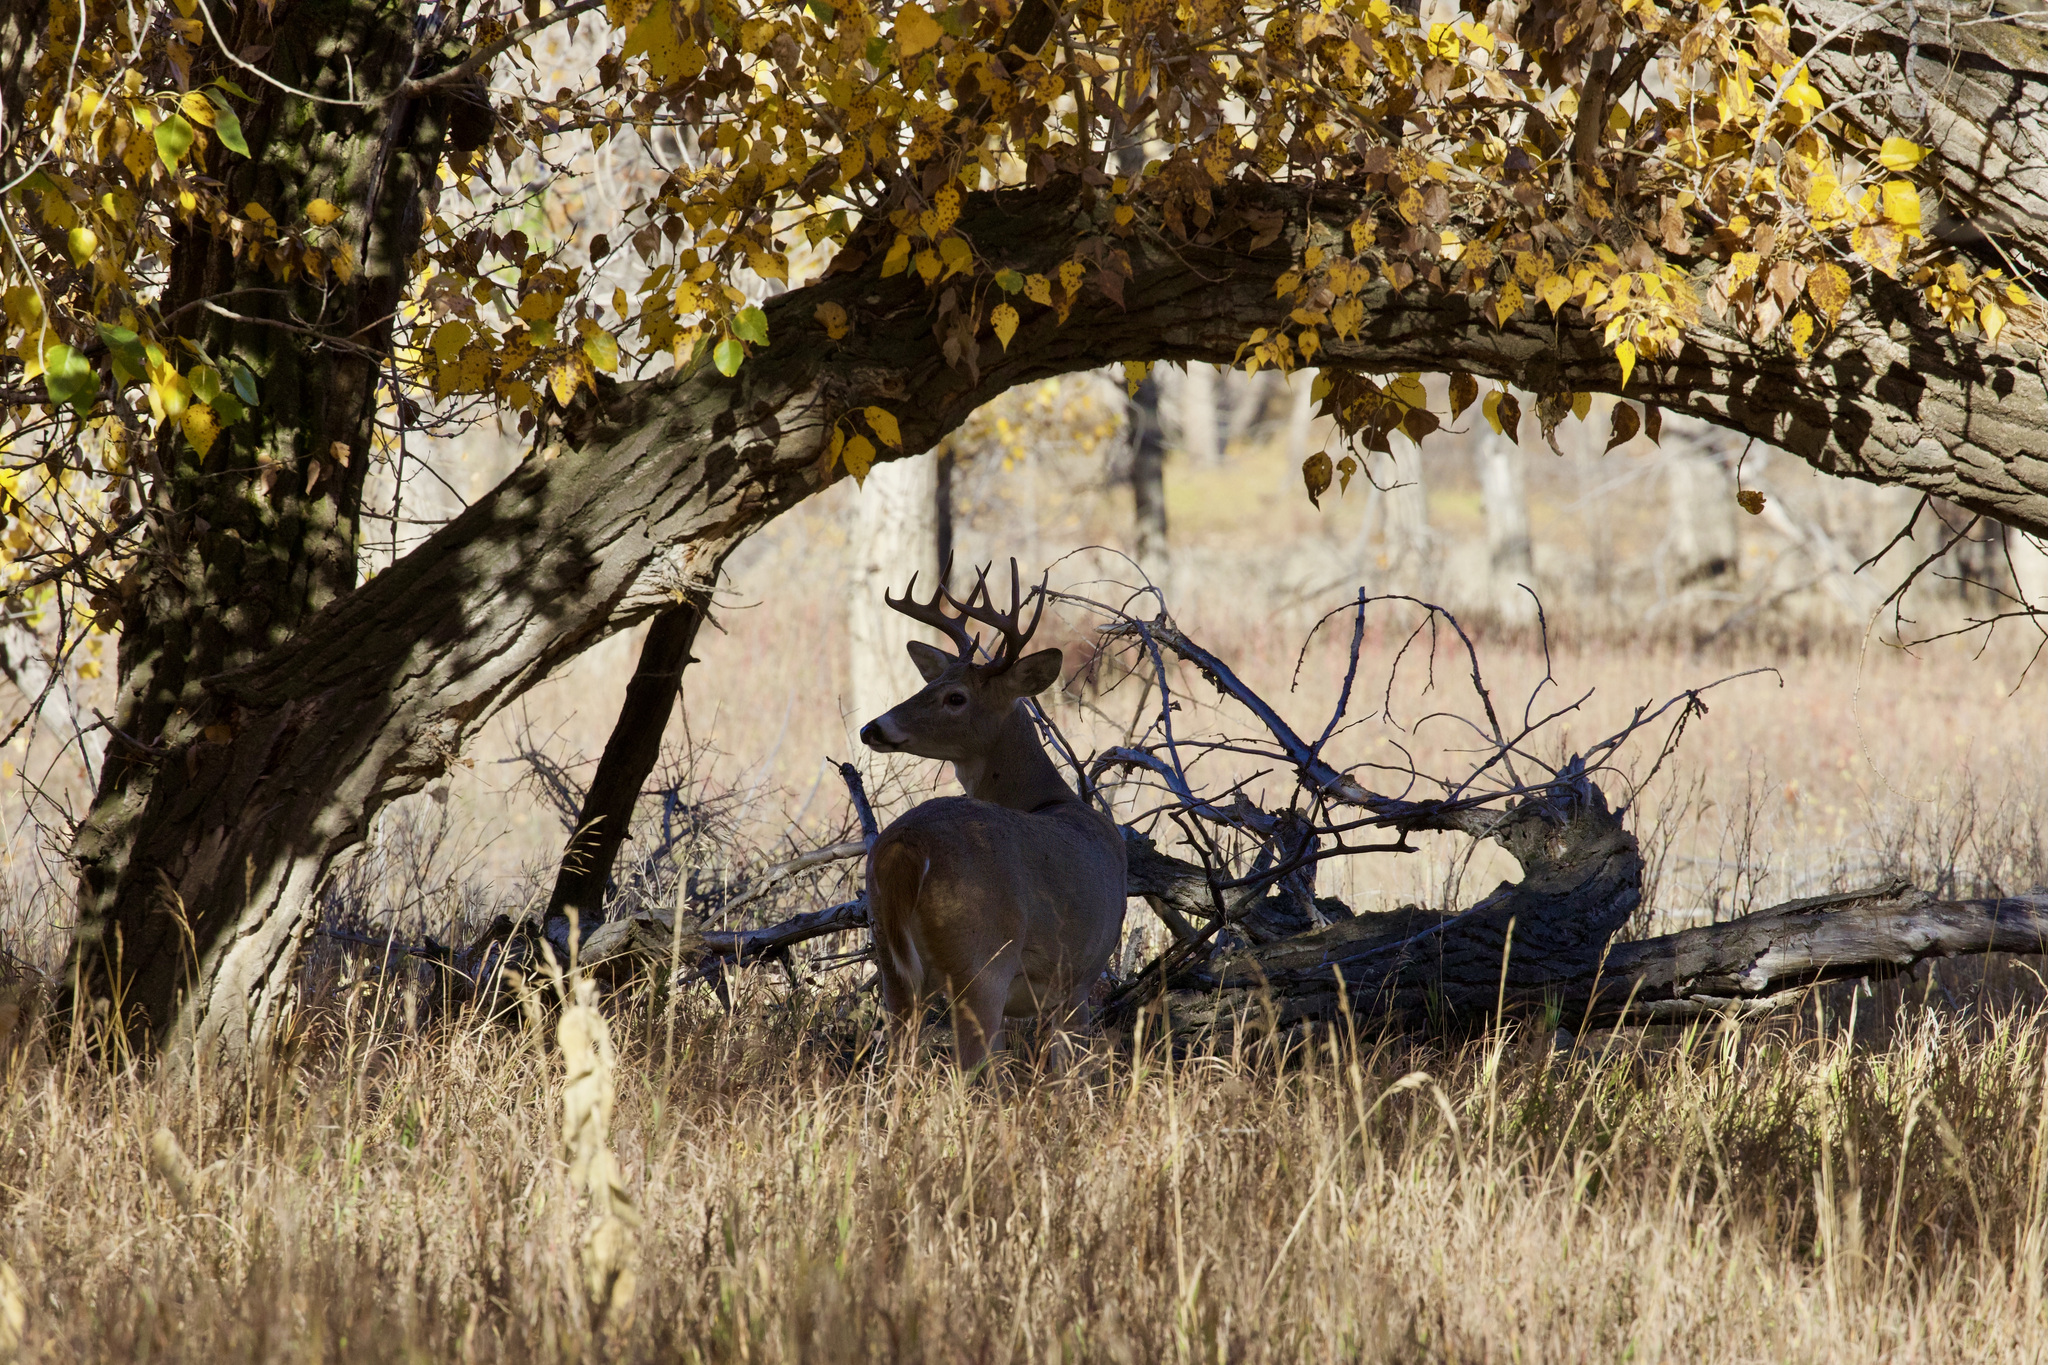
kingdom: Animalia
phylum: Chordata
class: Mammalia
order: Artiodactyla
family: Cervidae
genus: Odocoileus
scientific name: Odocoileus virginianus
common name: White-tailed deer
